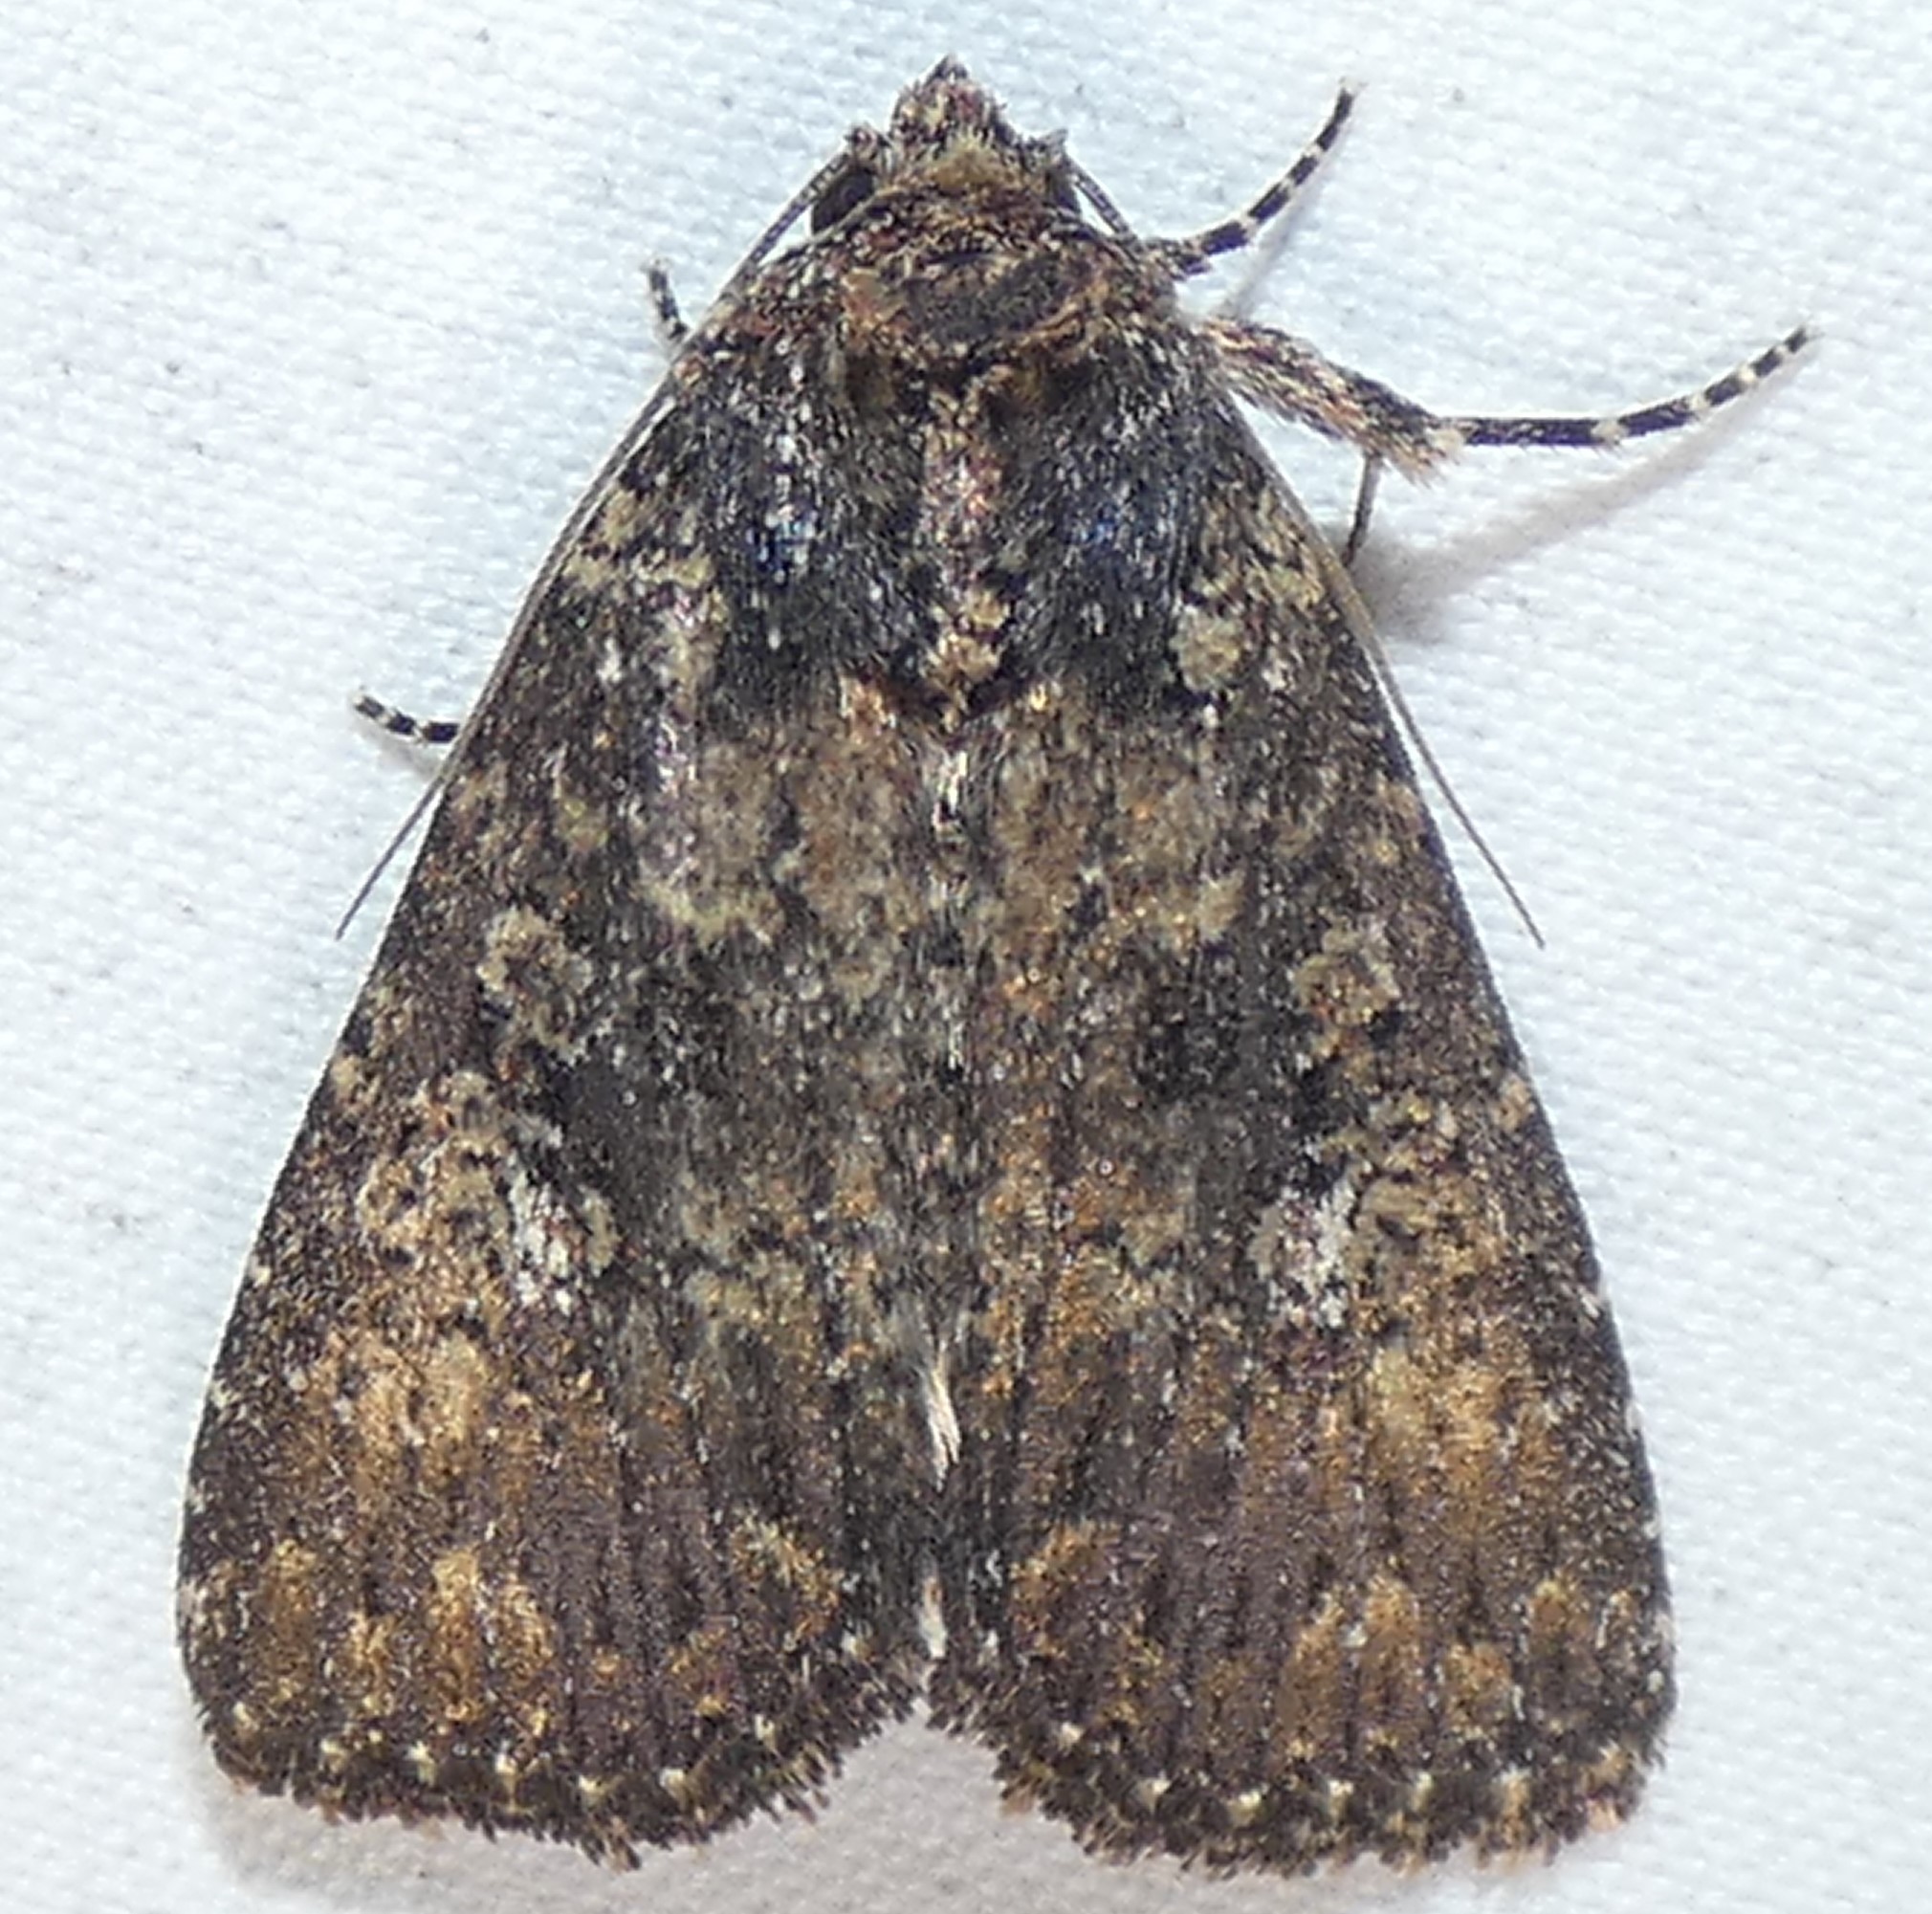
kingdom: Animalia
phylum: Arthropoda
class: Insecta
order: Lepidoptera
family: Noctuidae
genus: Condica
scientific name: Condica vecors
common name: Dusky groundling
